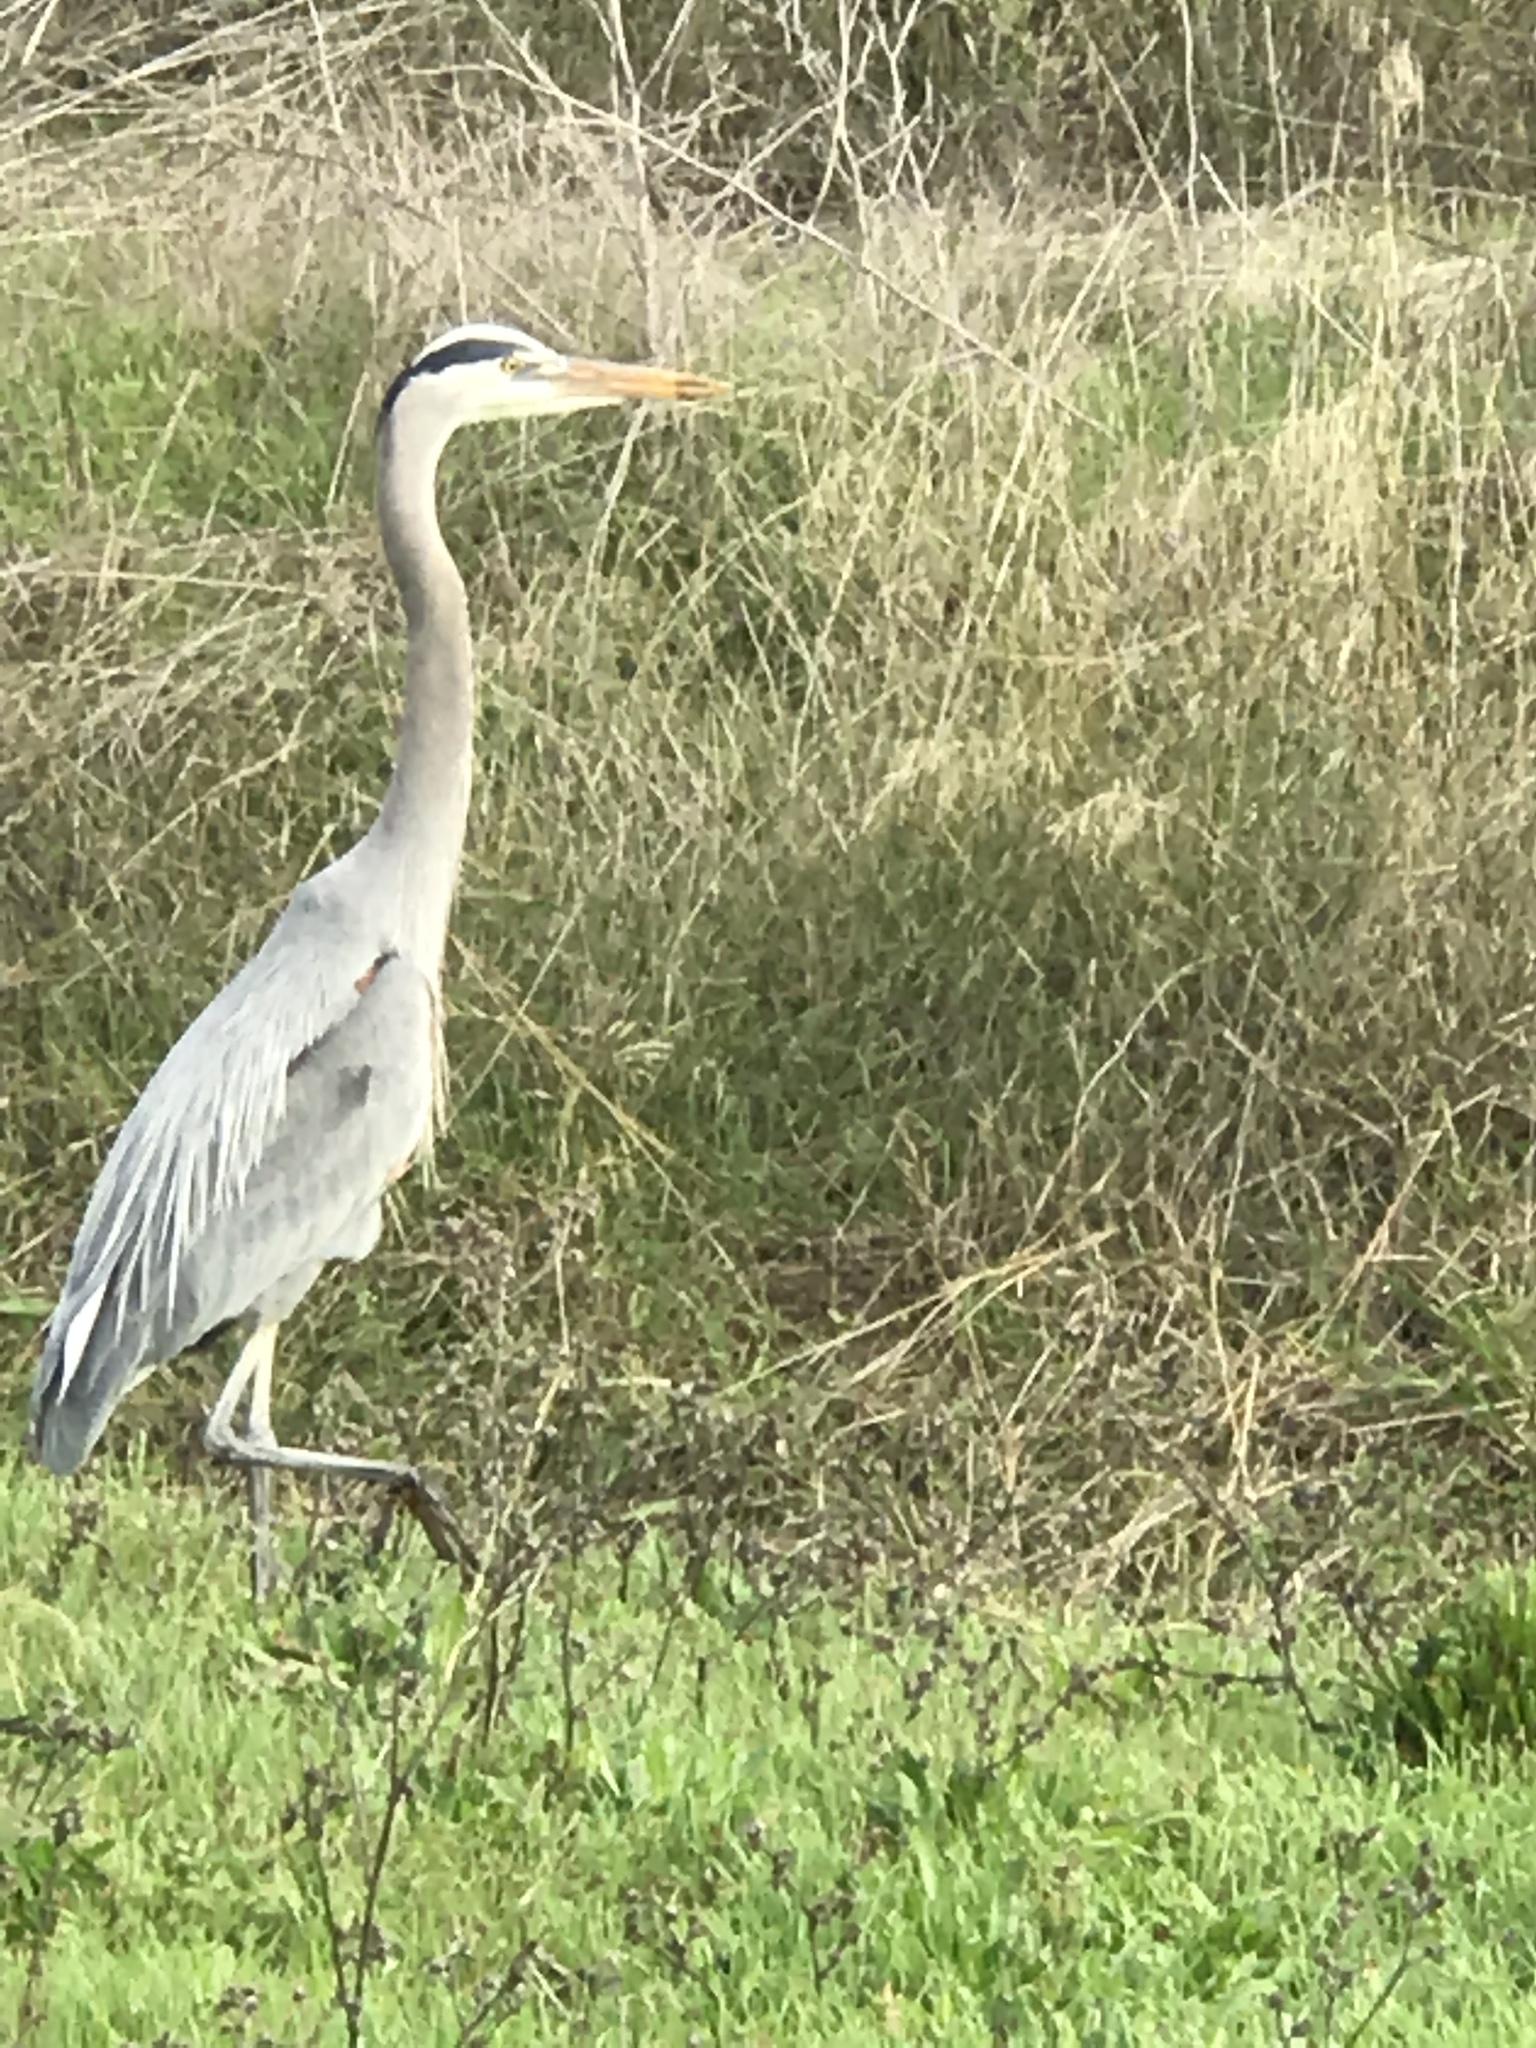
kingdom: Animalia
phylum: Chordata
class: Aves
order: Pelecaniformes
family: Ardeidae
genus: Ardea
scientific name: Ardea herodias
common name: Great blue heron
